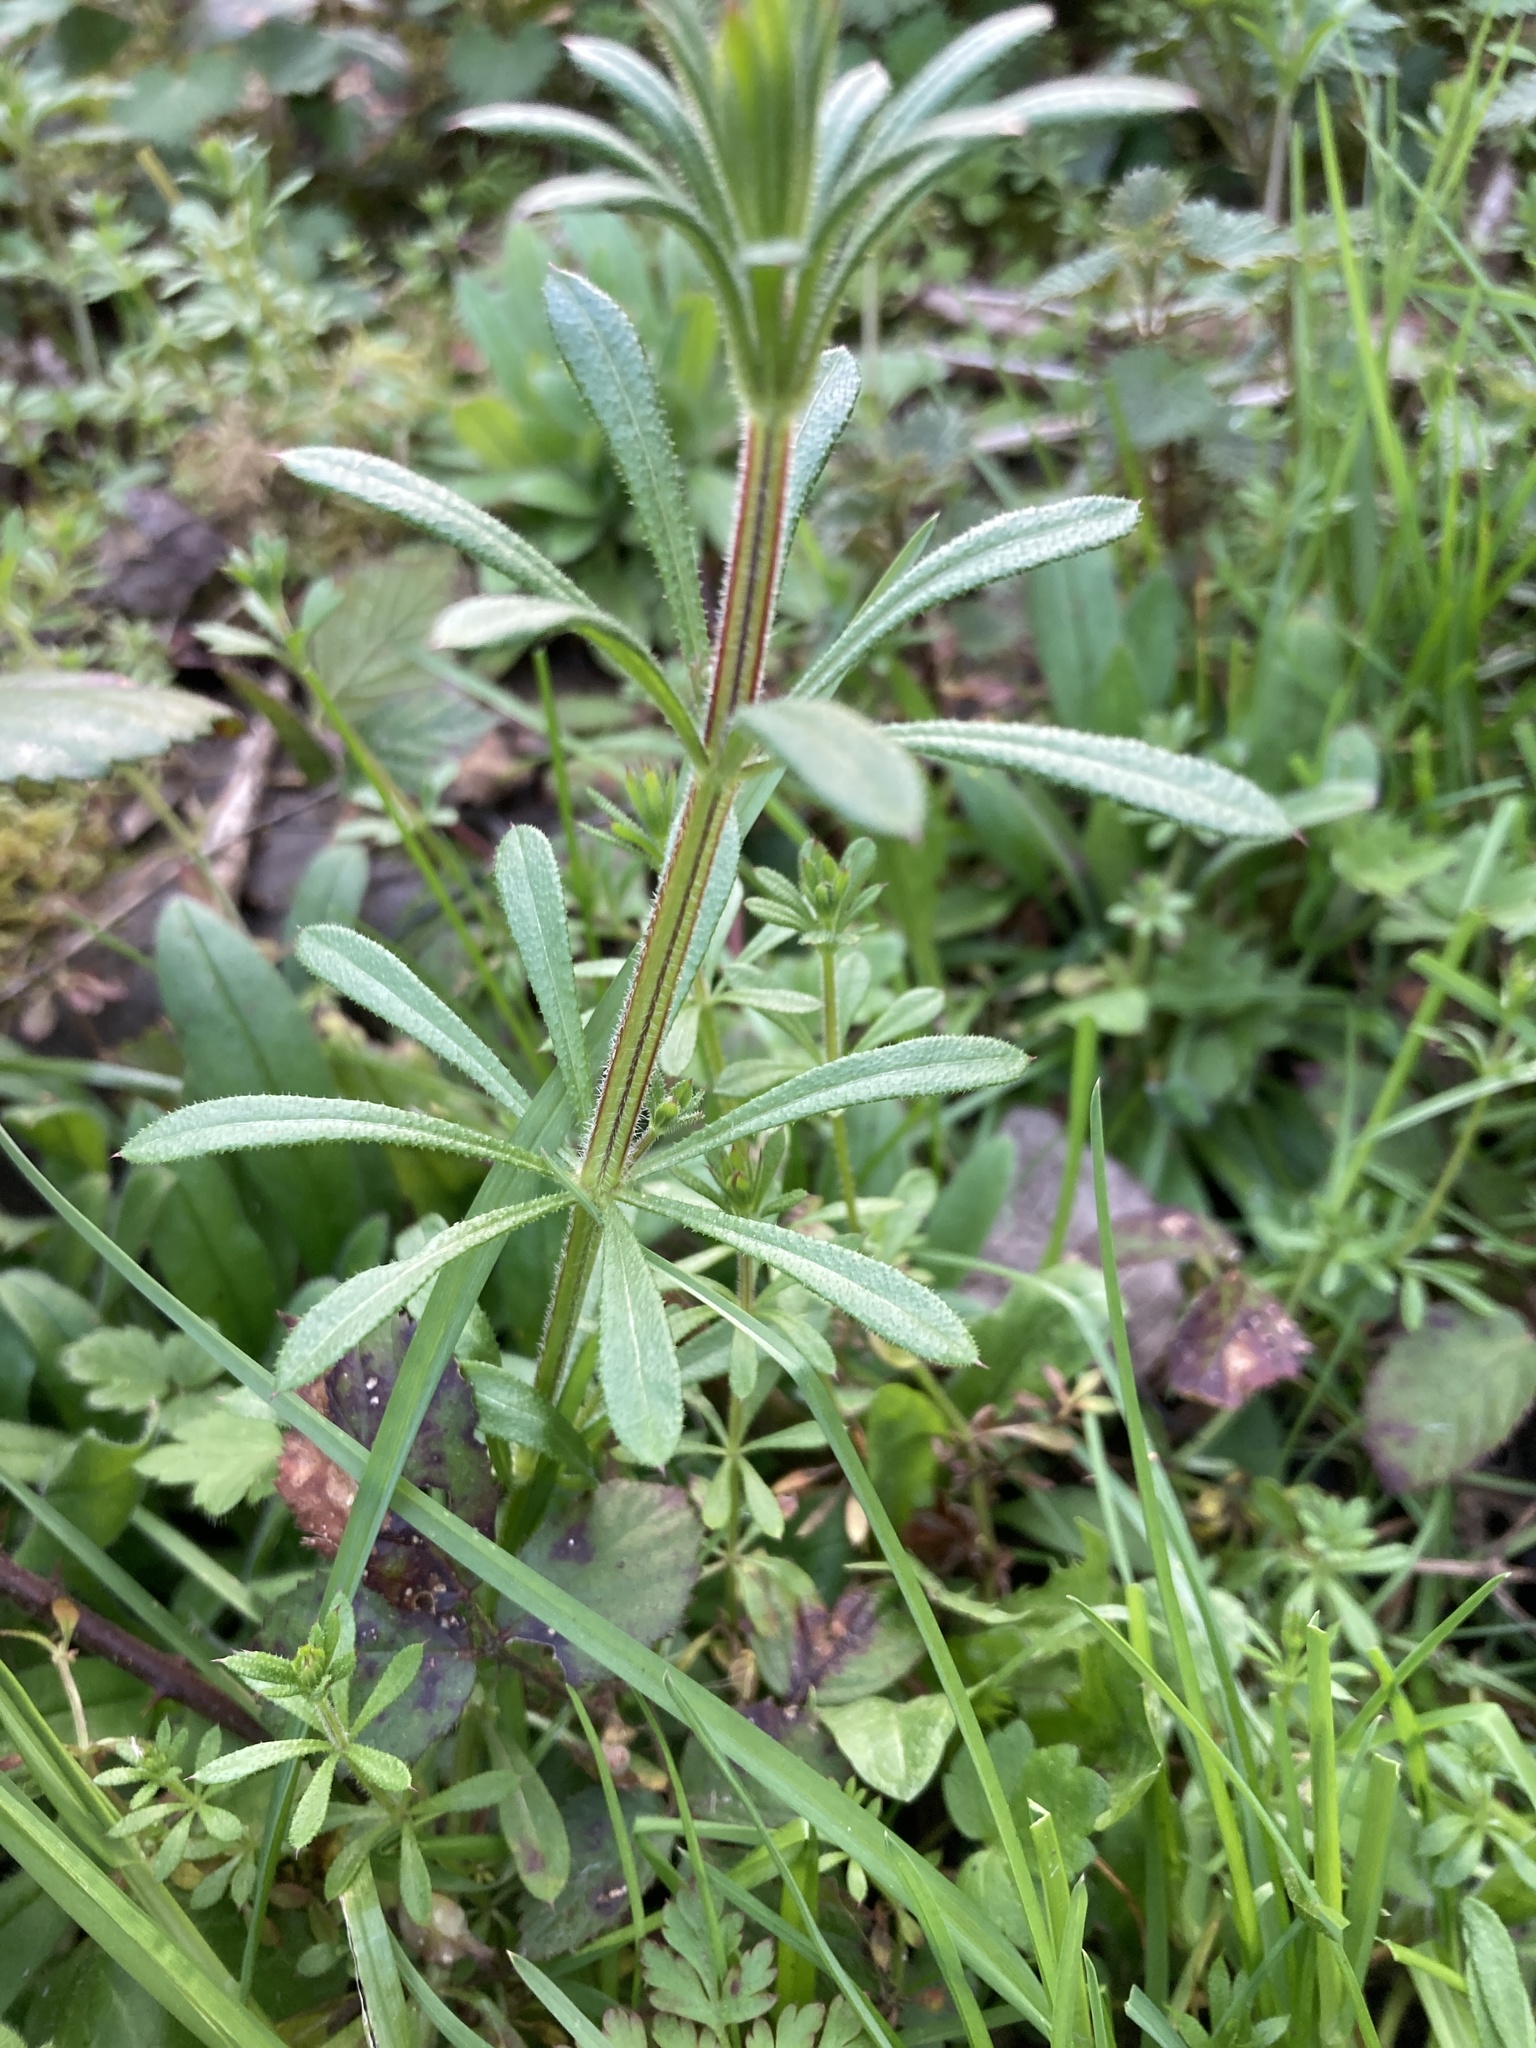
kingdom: Plantae
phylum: Tracheophyta
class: Magnoliopsida
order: Gentianales
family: Rubiaceae
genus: Galium
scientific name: Galium aparine
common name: Cleavers
